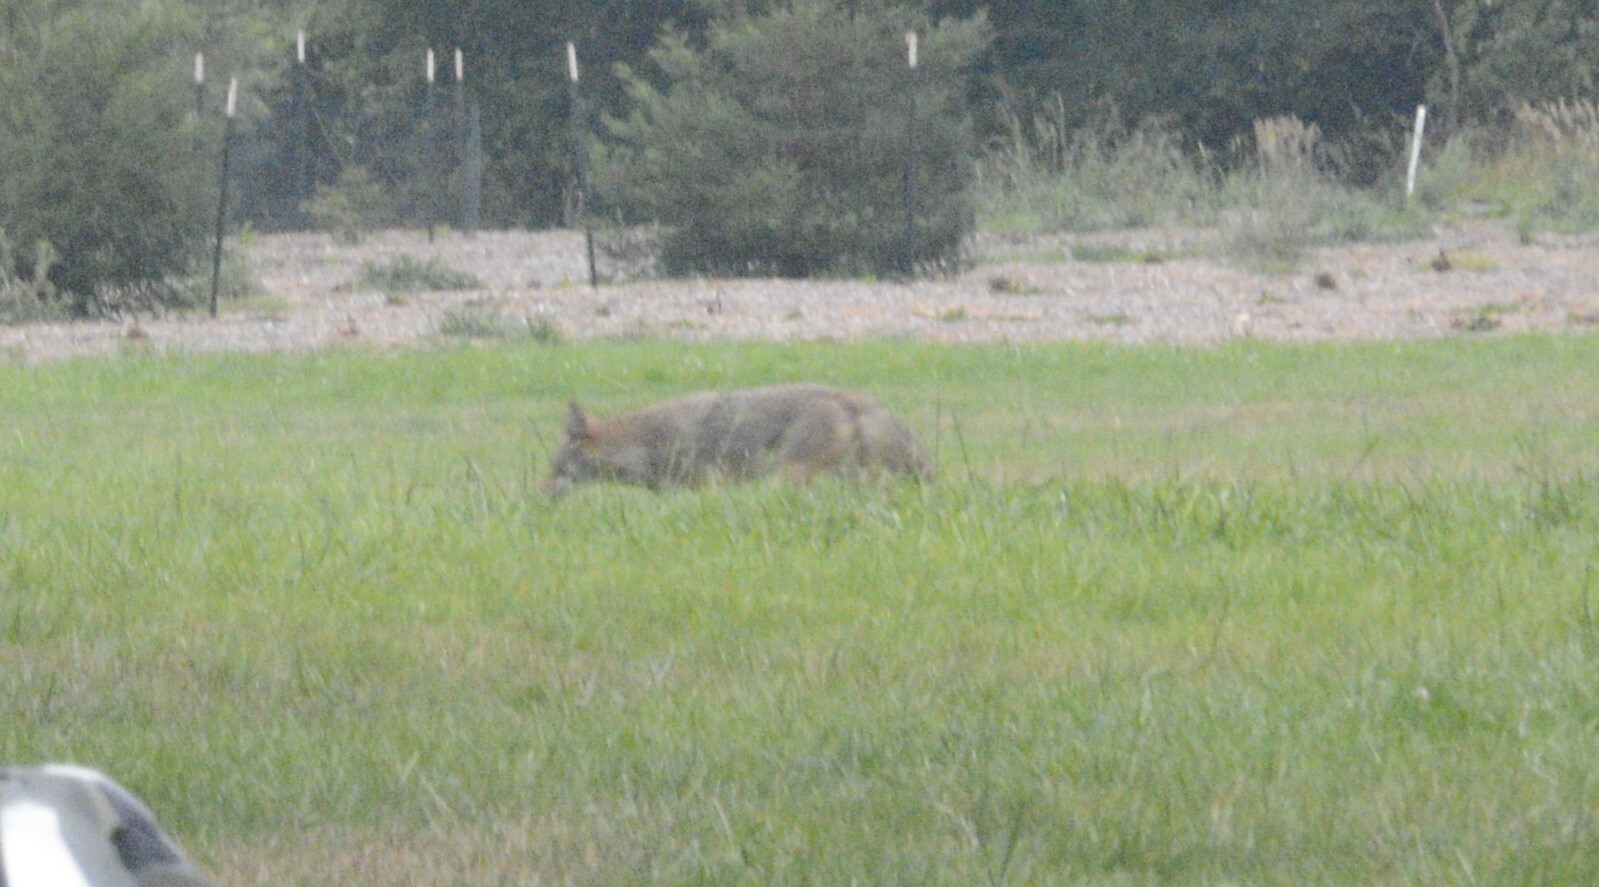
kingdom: Animalia
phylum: Chordata
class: Mammalia
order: Carnivora
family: Canidae
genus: Canis
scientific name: Canis latrans
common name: Coyote
